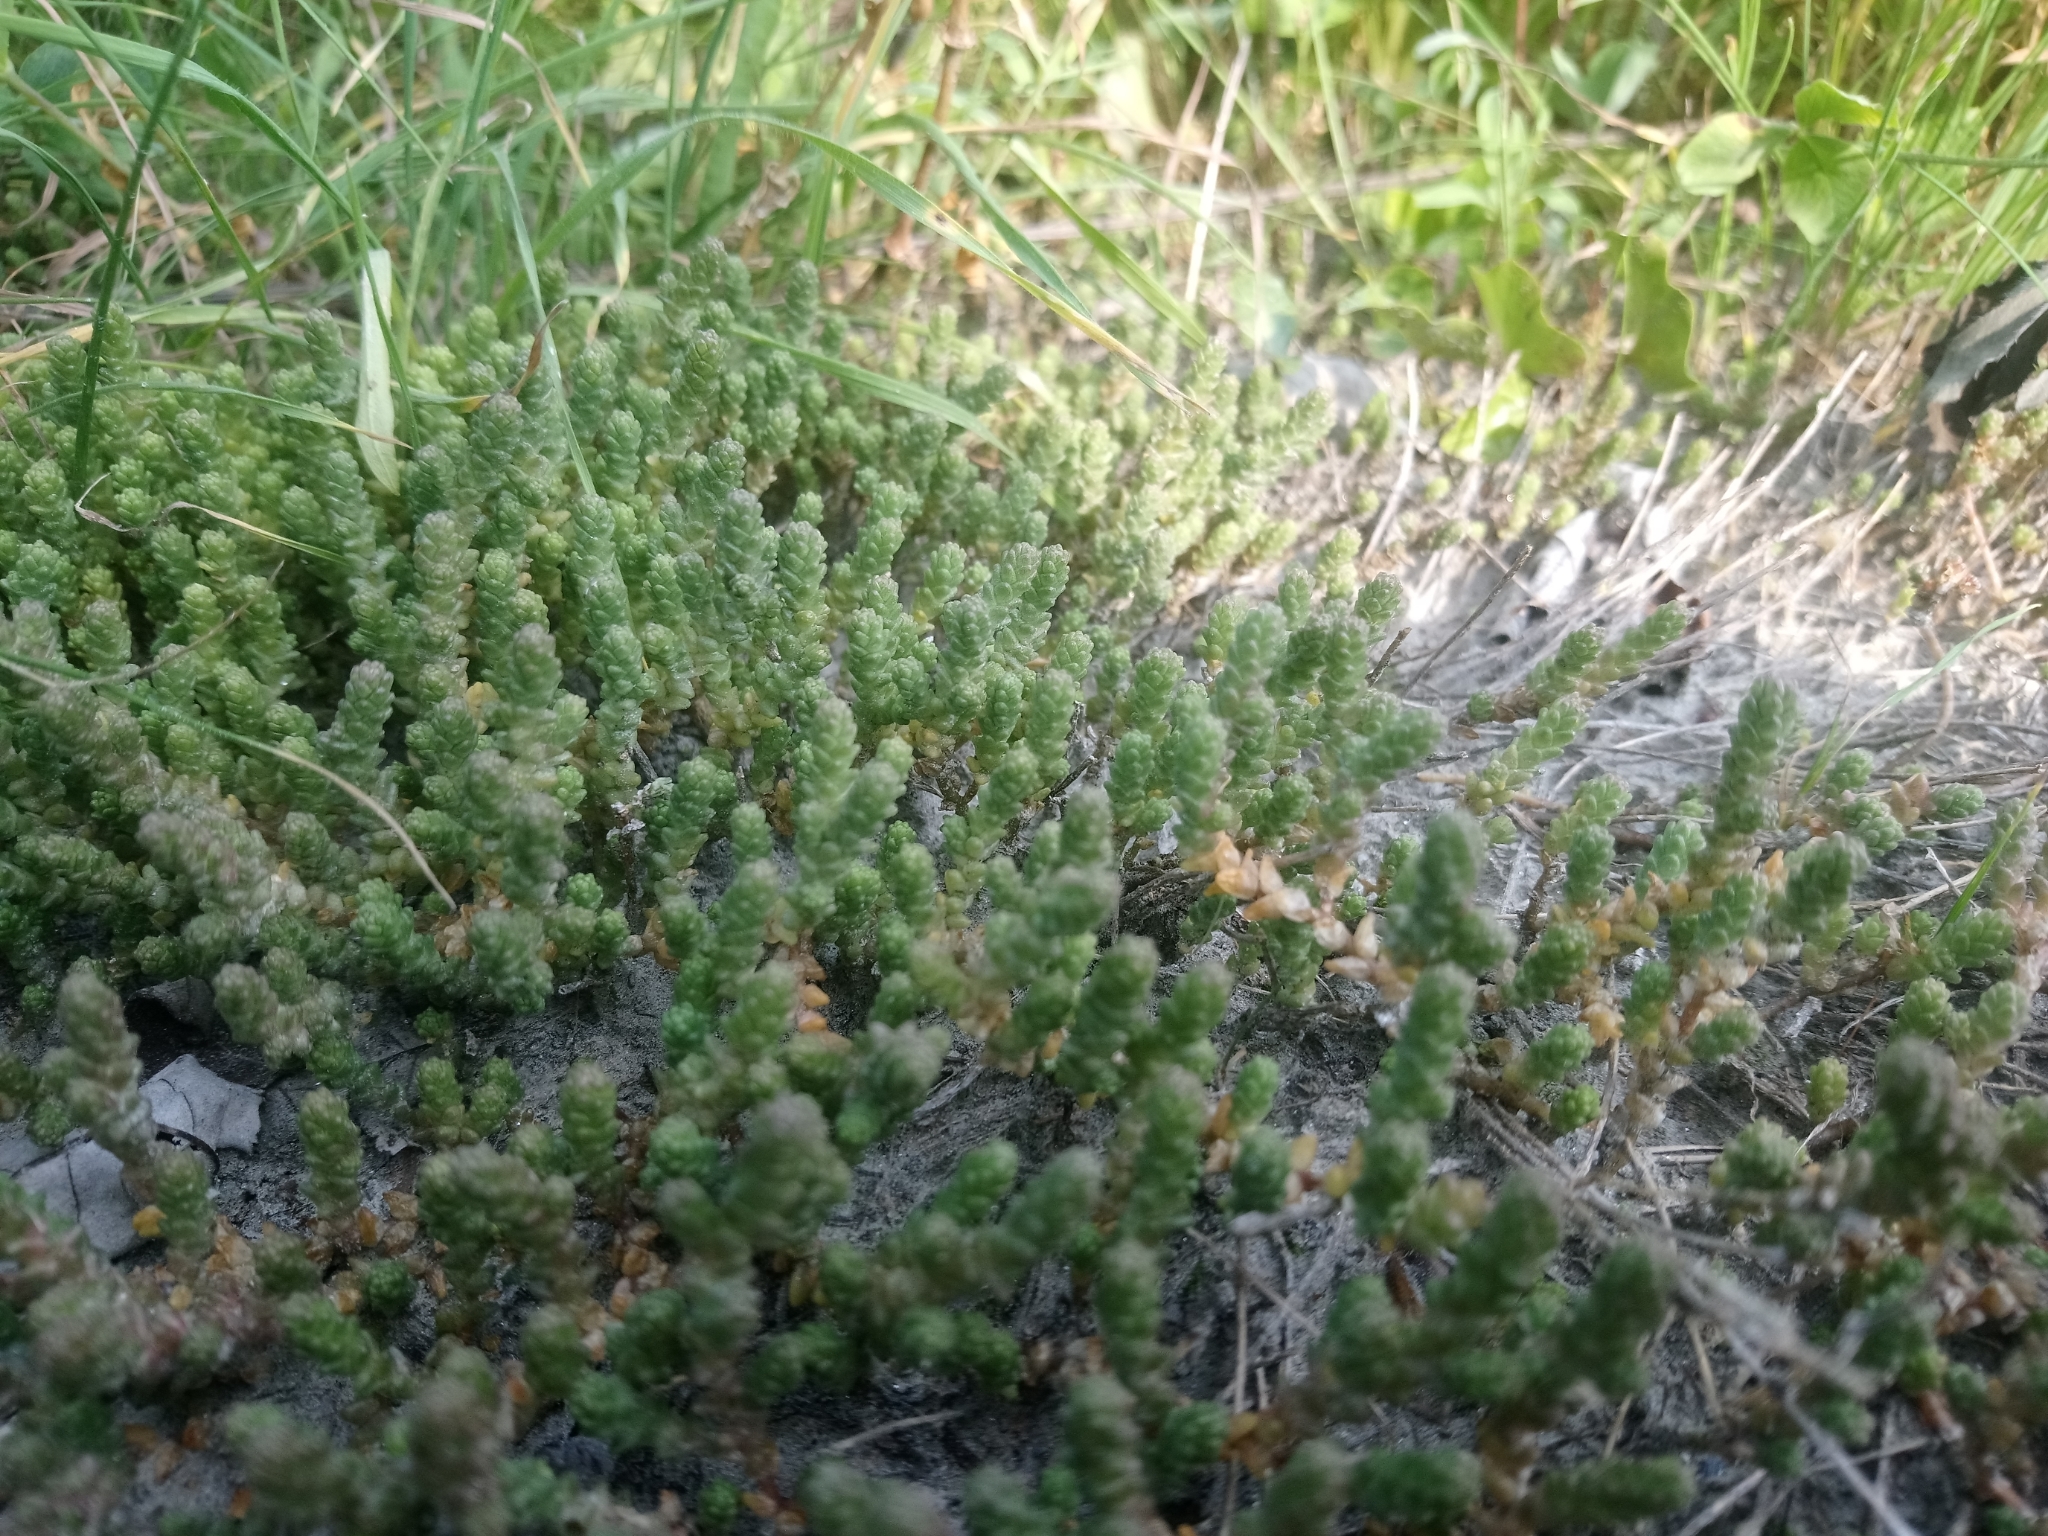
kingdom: Plantae
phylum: Tracheophyta
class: Magnoliopsida
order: Saxifragales
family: Crassulaceae
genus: Sedum
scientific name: Sedum acre
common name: Biting stonecrop
